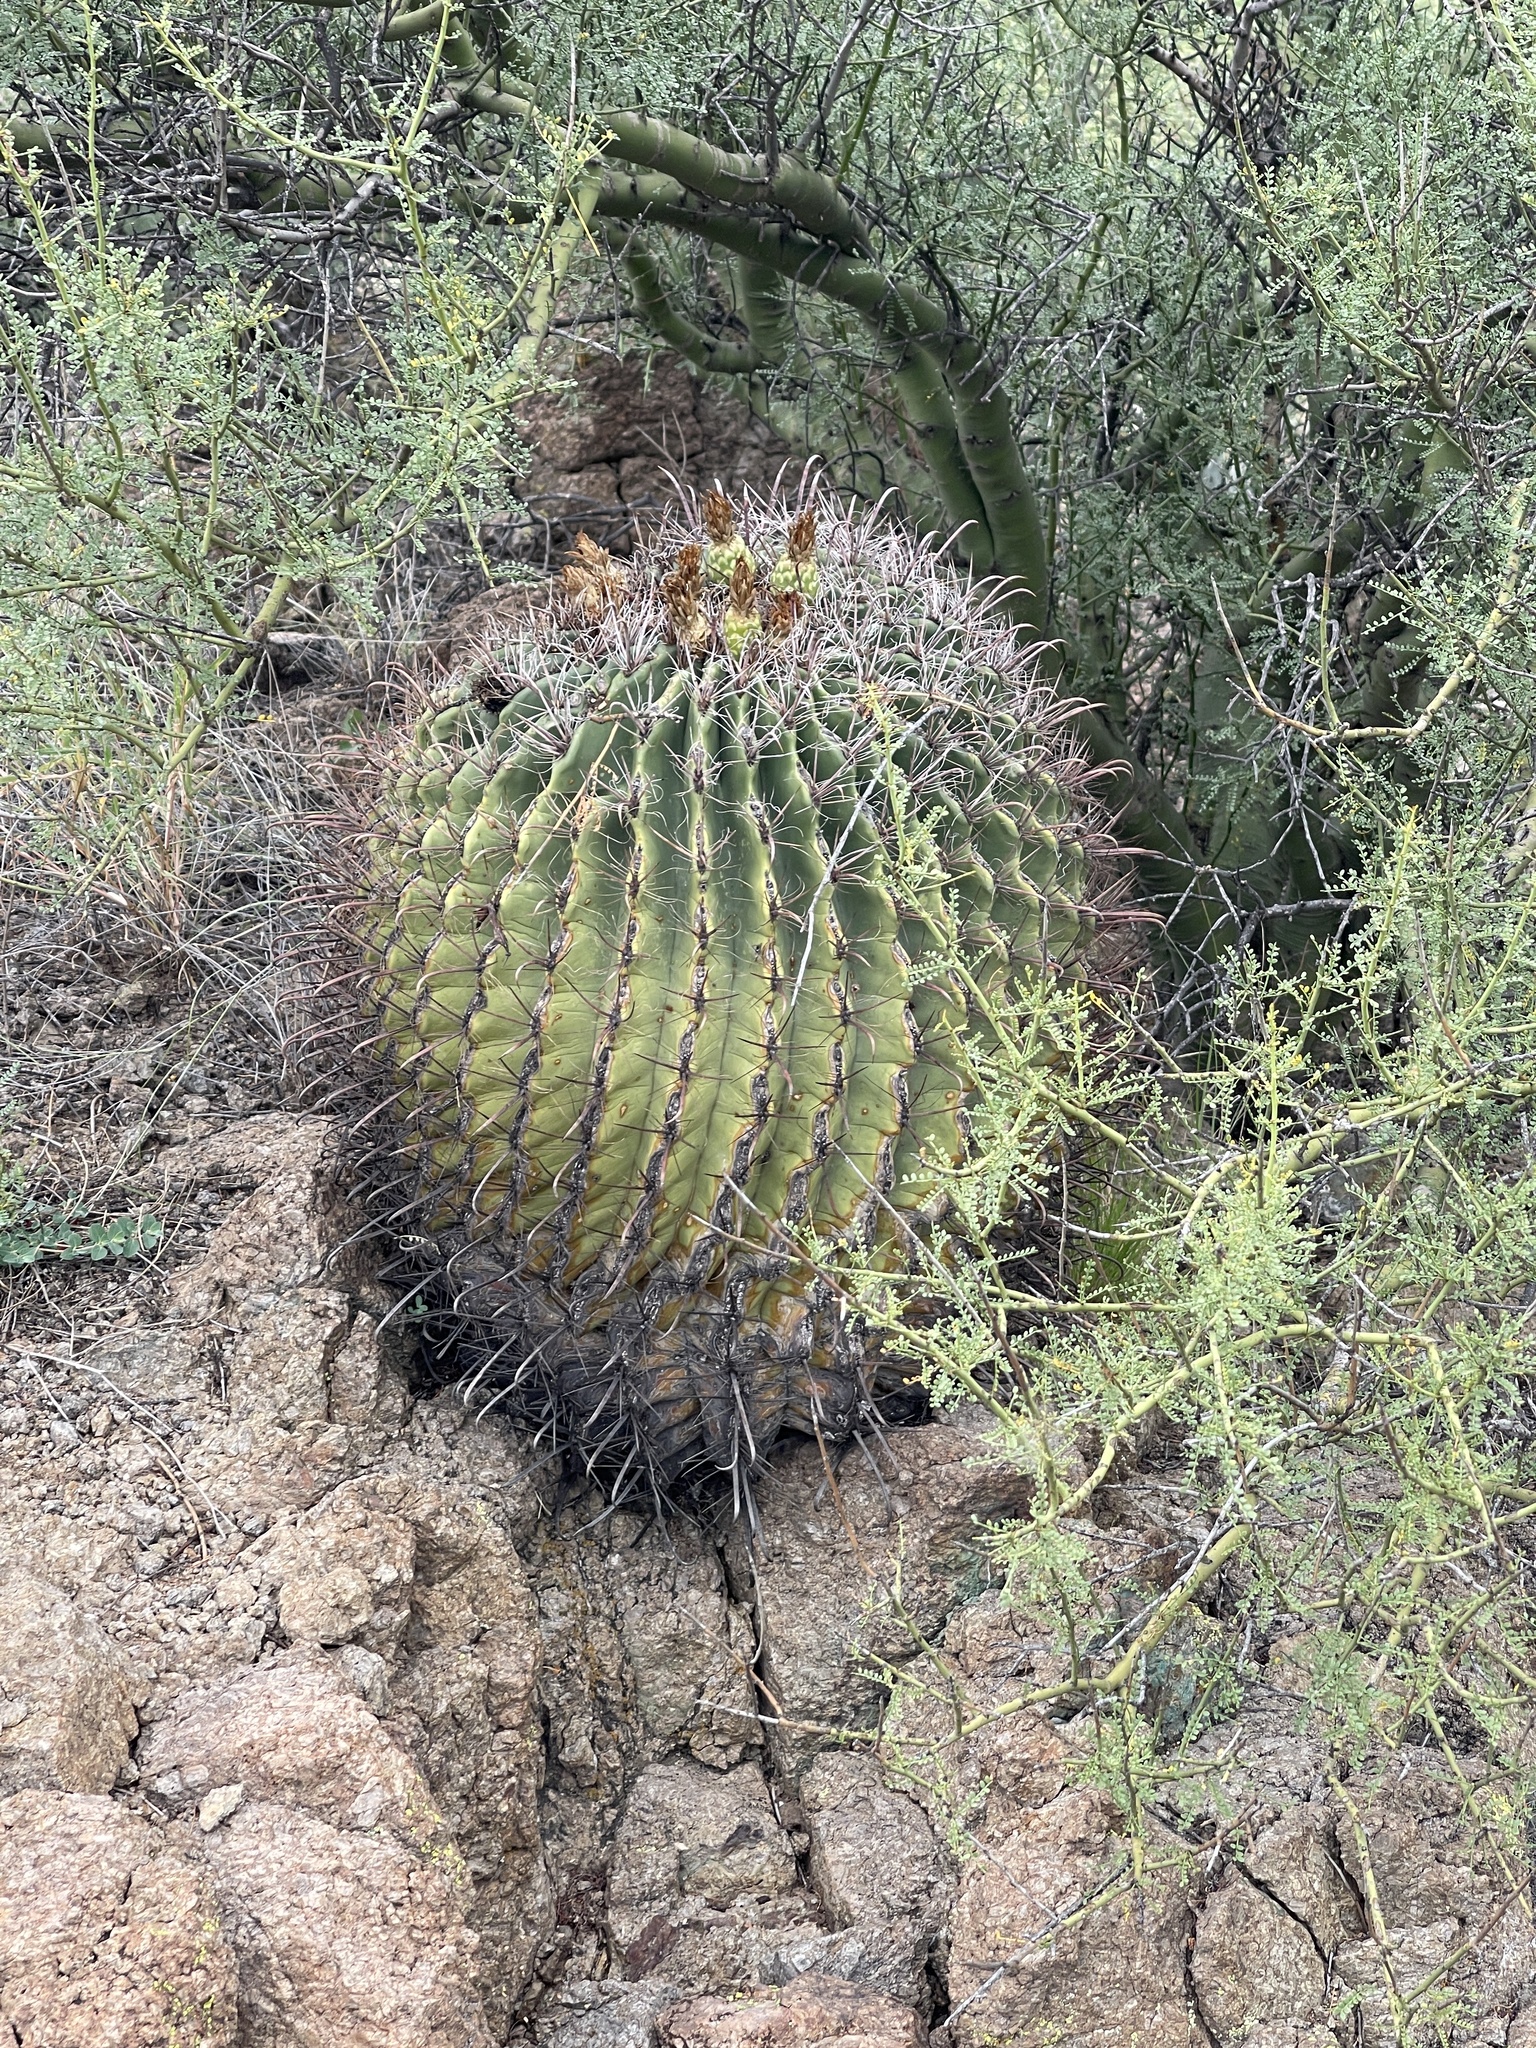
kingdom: Plantae
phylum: Tracheophyta
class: Magnoliopsida
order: Caryophyllales
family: Cactaceae
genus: Ferocactus
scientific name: Ferocactus wislizeni
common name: Candy barrel cactus
